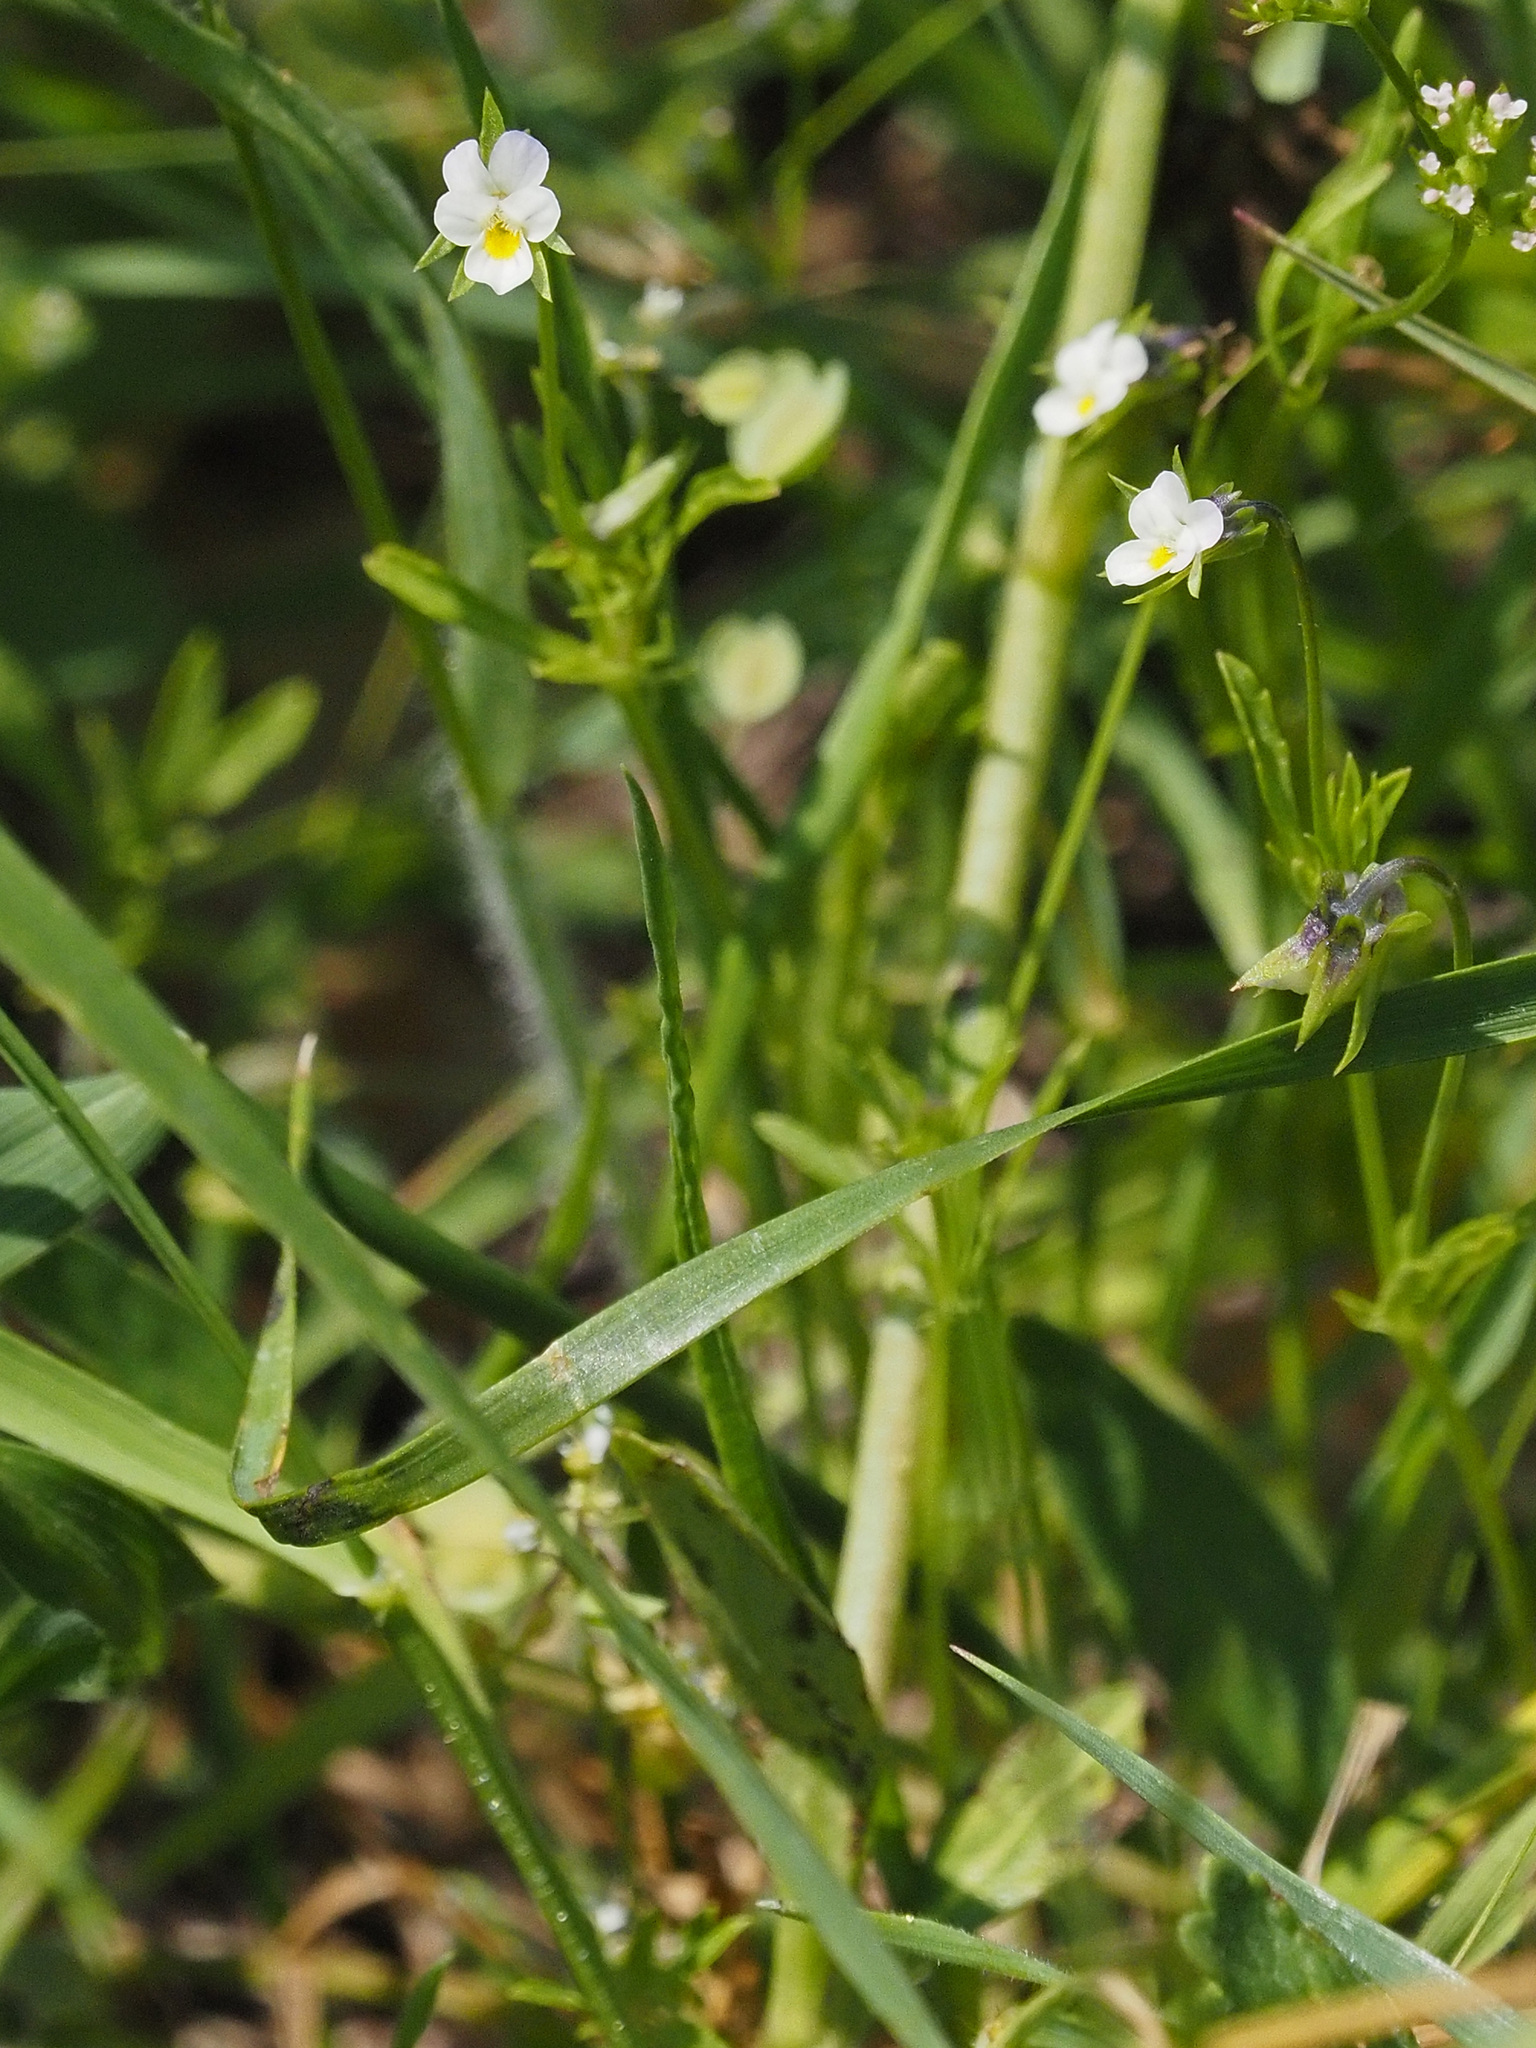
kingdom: Plantae
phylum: Tracheophyta
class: Magnoliopsida
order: Malpighiales
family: Violaceae
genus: Viola
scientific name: Viola arvensis
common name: Field pansy
